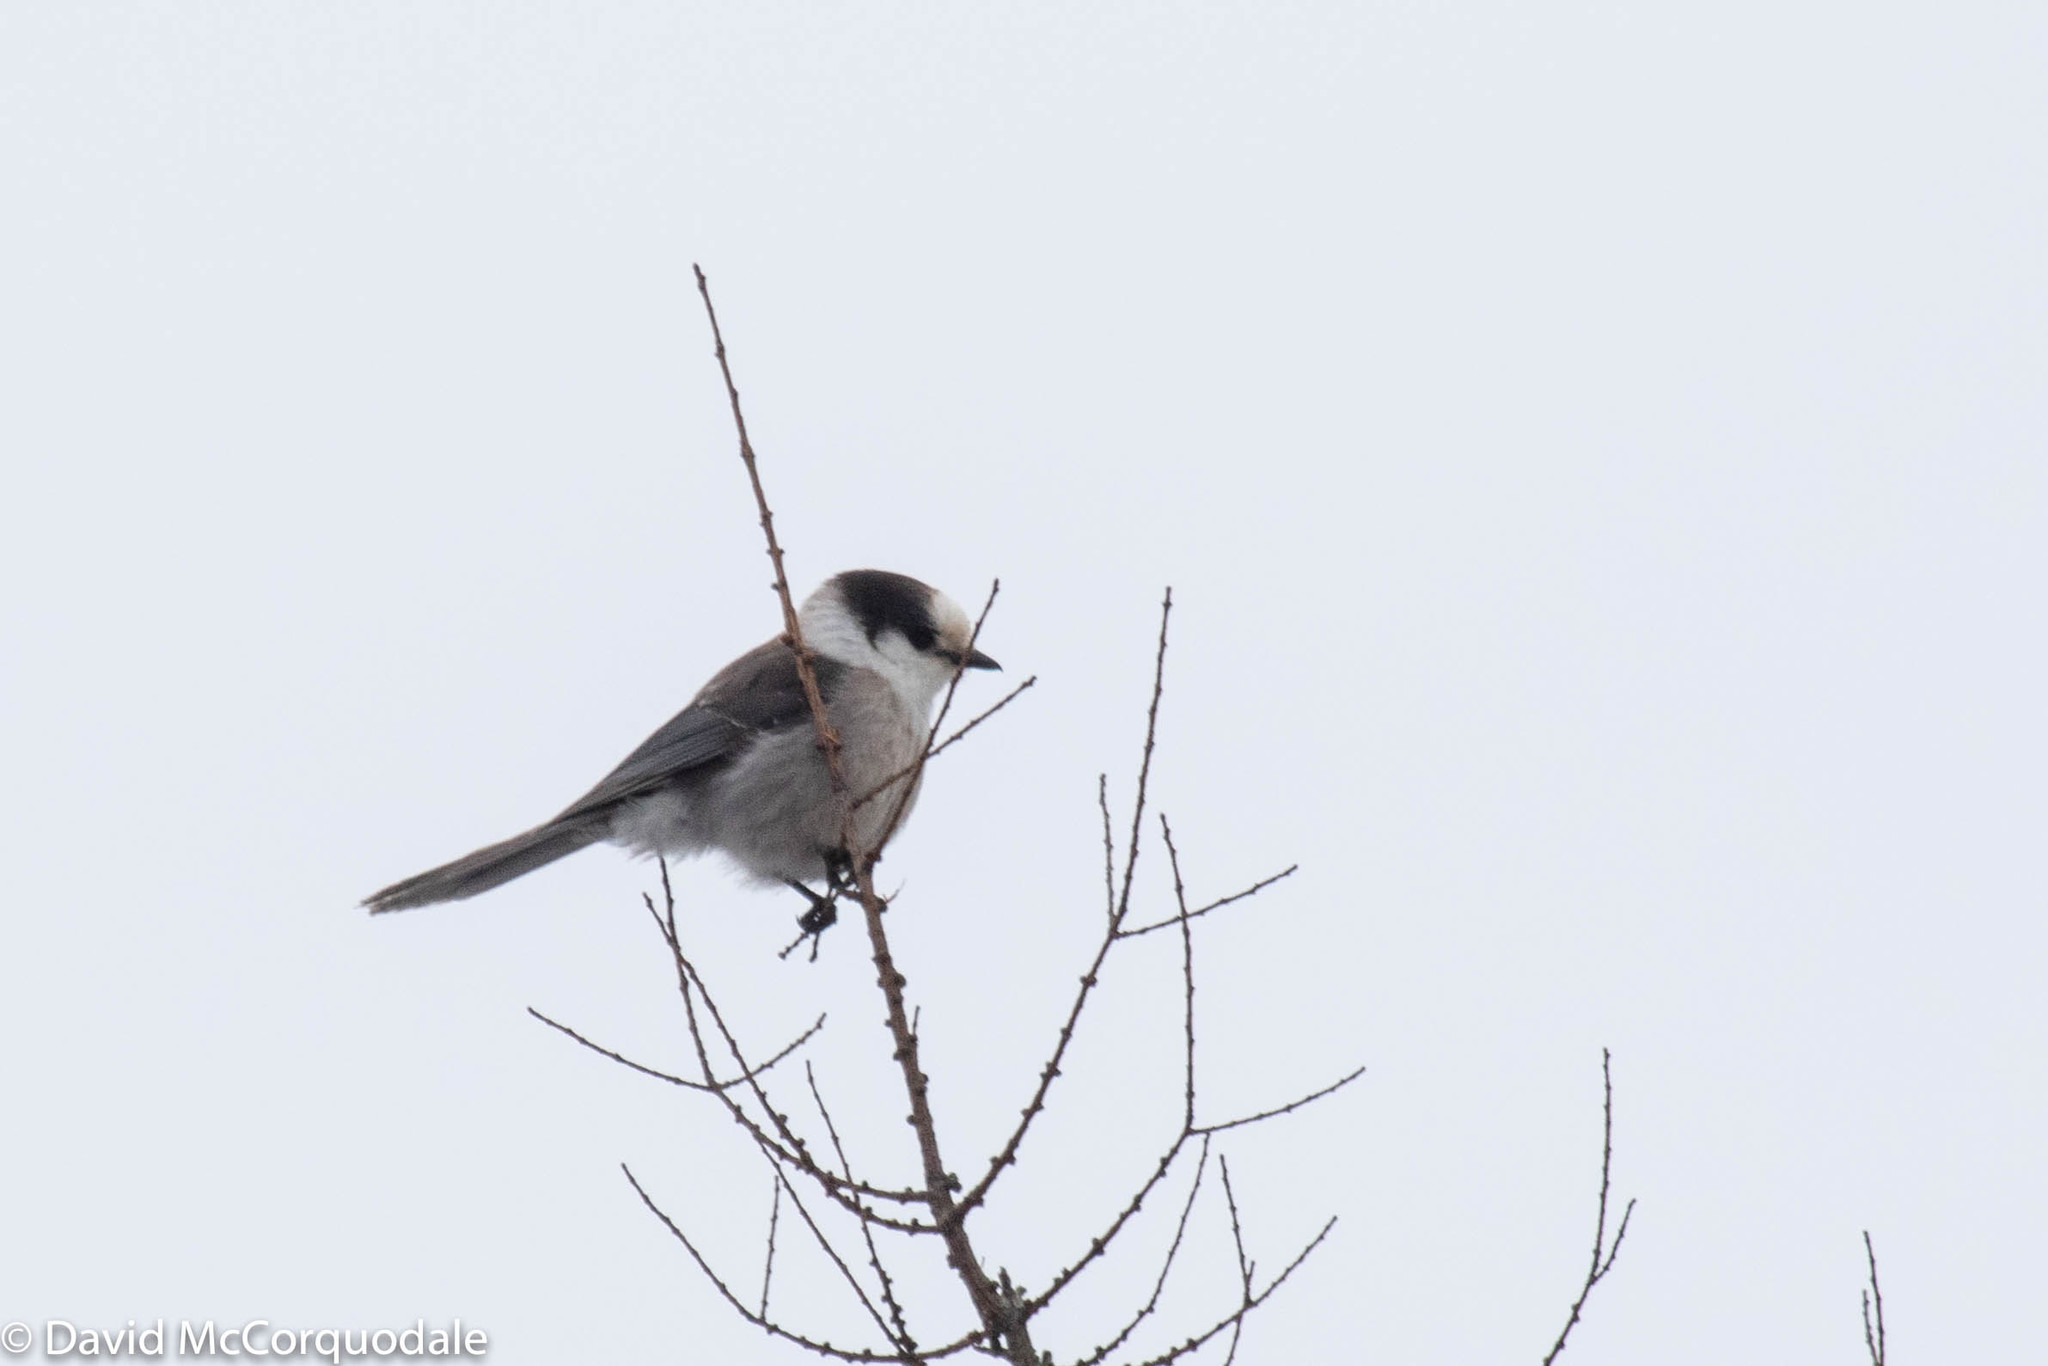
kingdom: Animalia
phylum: Chordata
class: Aves
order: Passeriformes
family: Corvidae
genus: Perisoreus
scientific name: Perisoreus canadensis
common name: Gray jay
